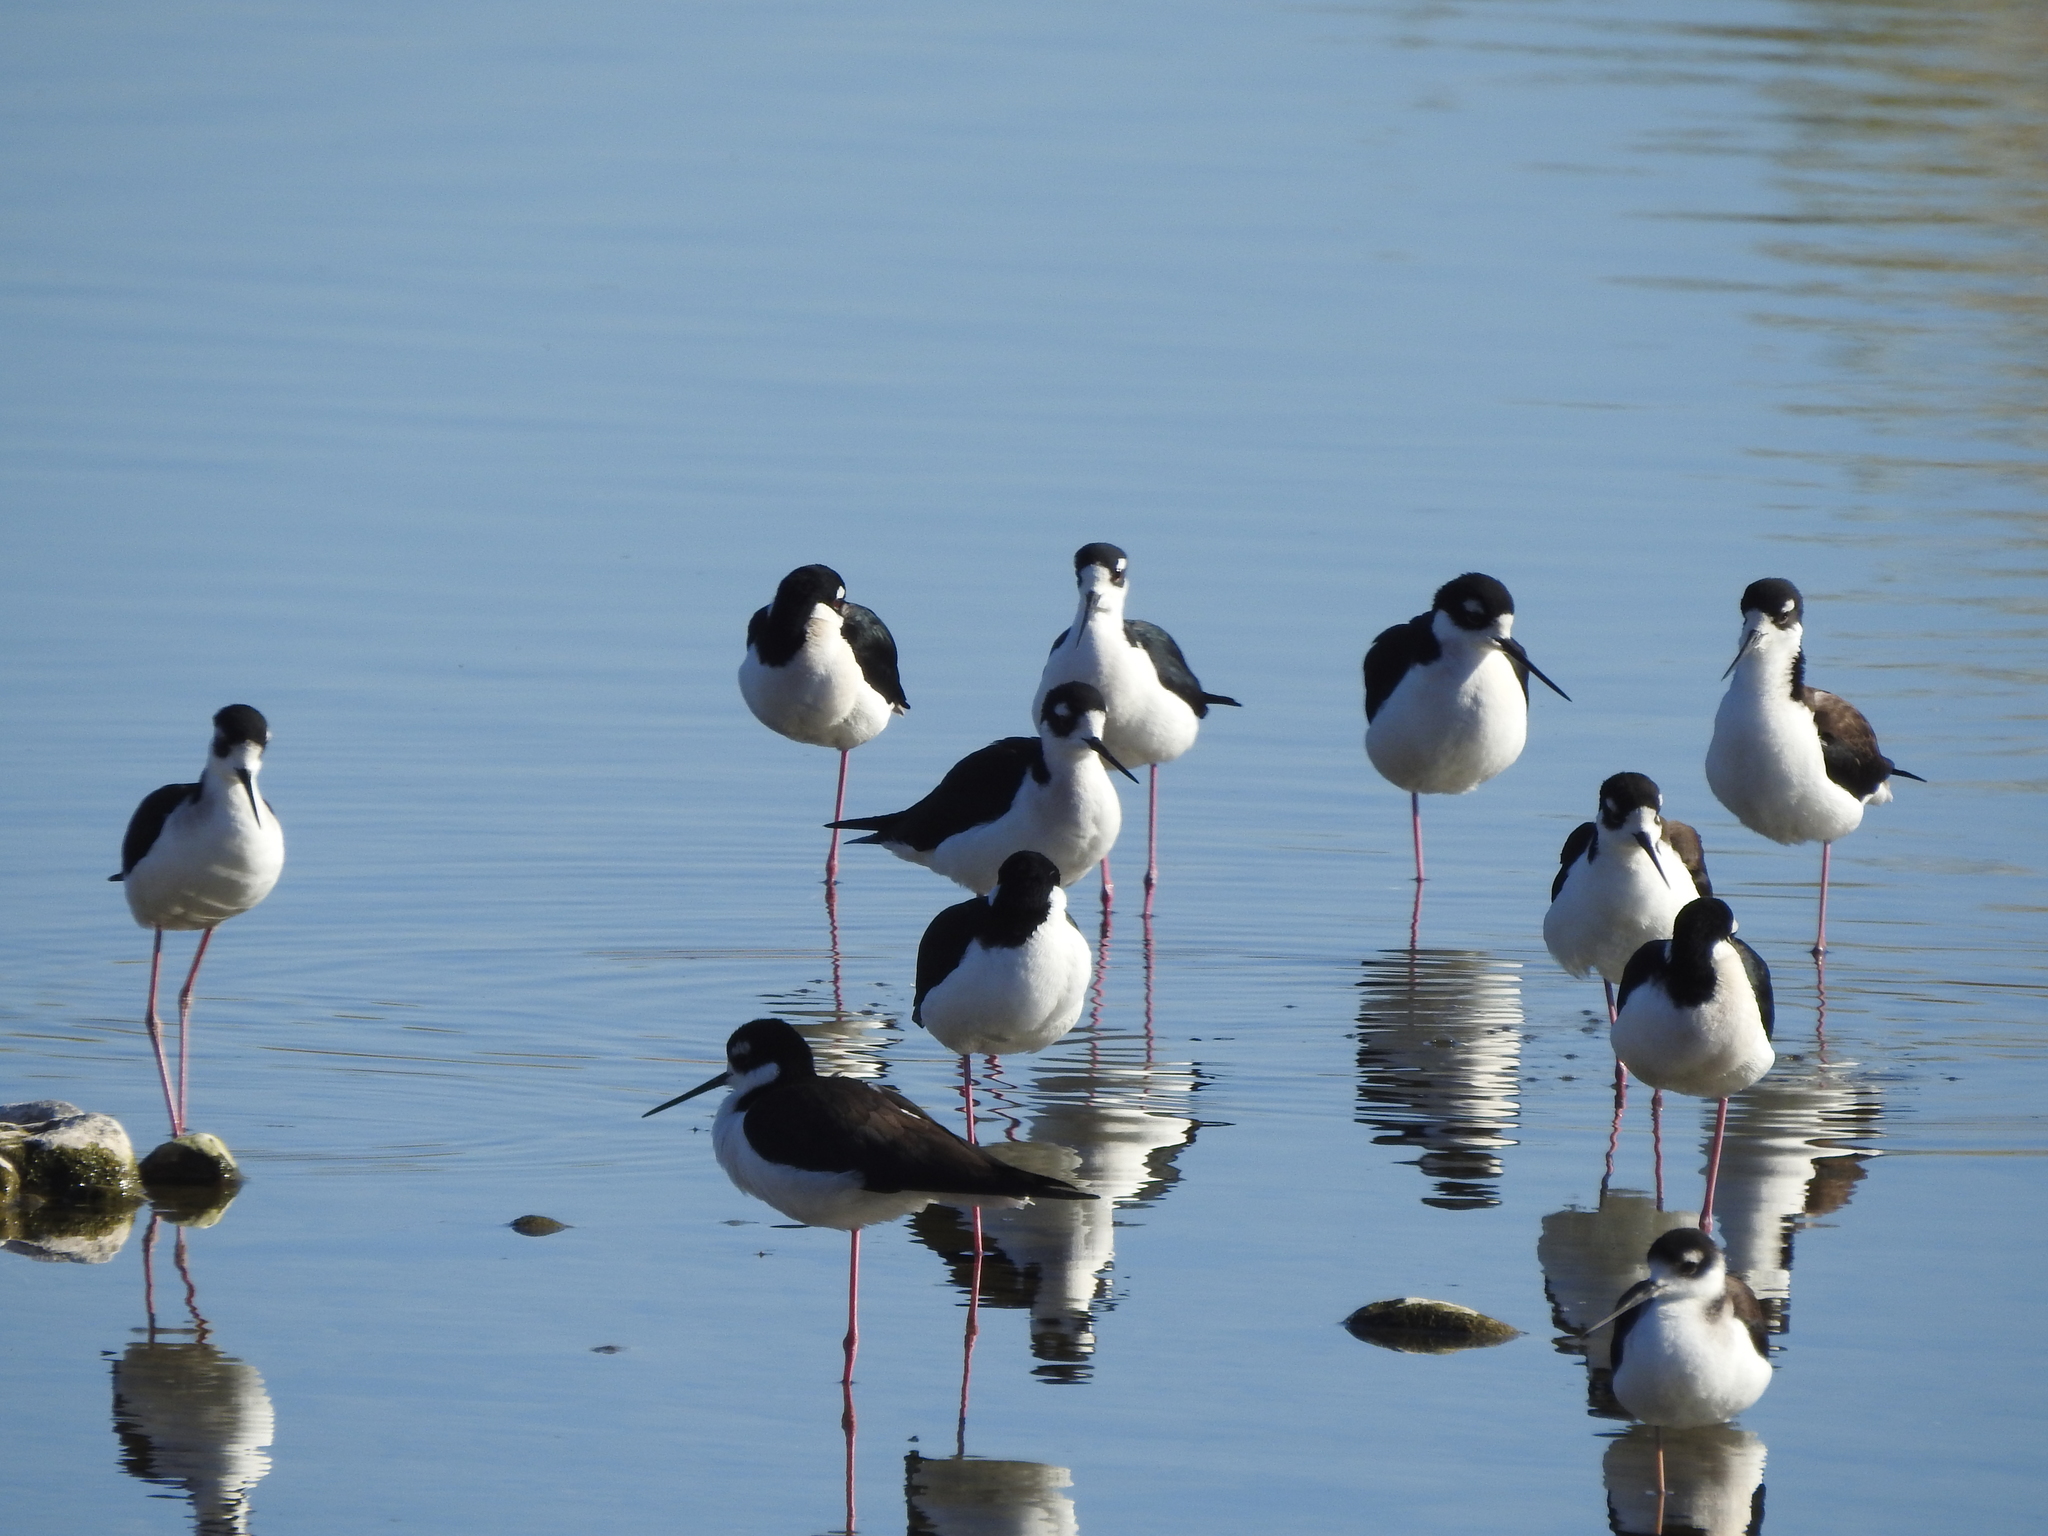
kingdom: Animalia
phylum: Chordata
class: Aves
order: Charadriiformes
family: Recurvirostridae
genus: Himantopus
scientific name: Himantopus mexicanus
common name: Black-necked stilt
